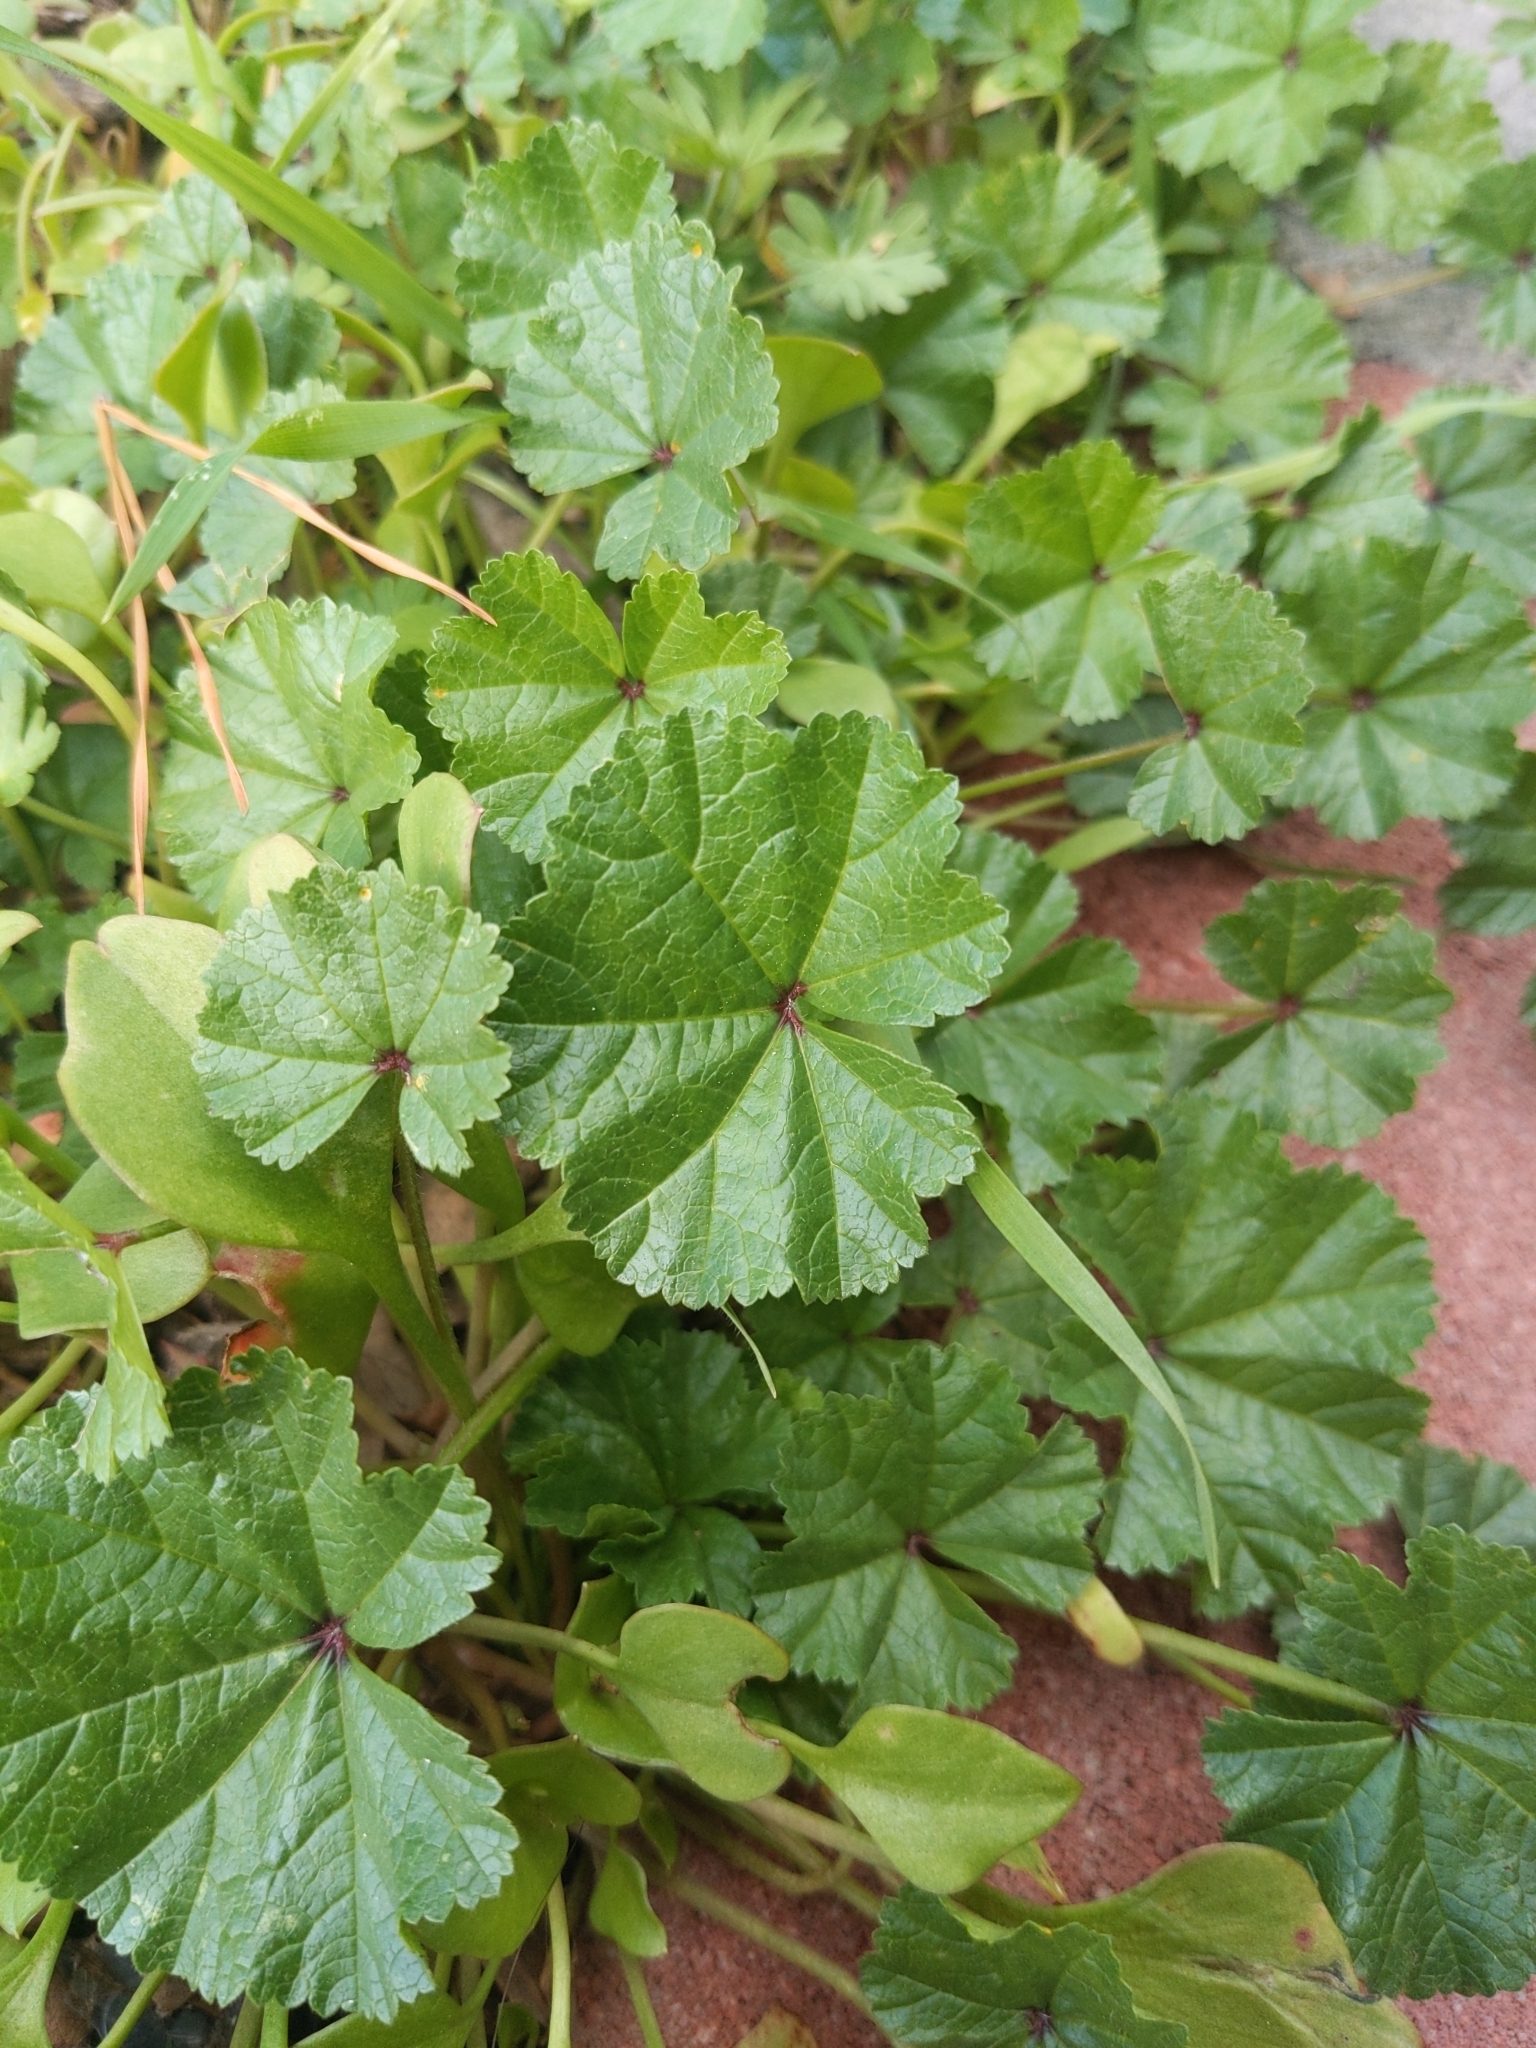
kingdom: Plantae
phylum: Tracheophyta
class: Magnoliopsida
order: Malvales
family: Malvaceae
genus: Malva
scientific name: Malva
